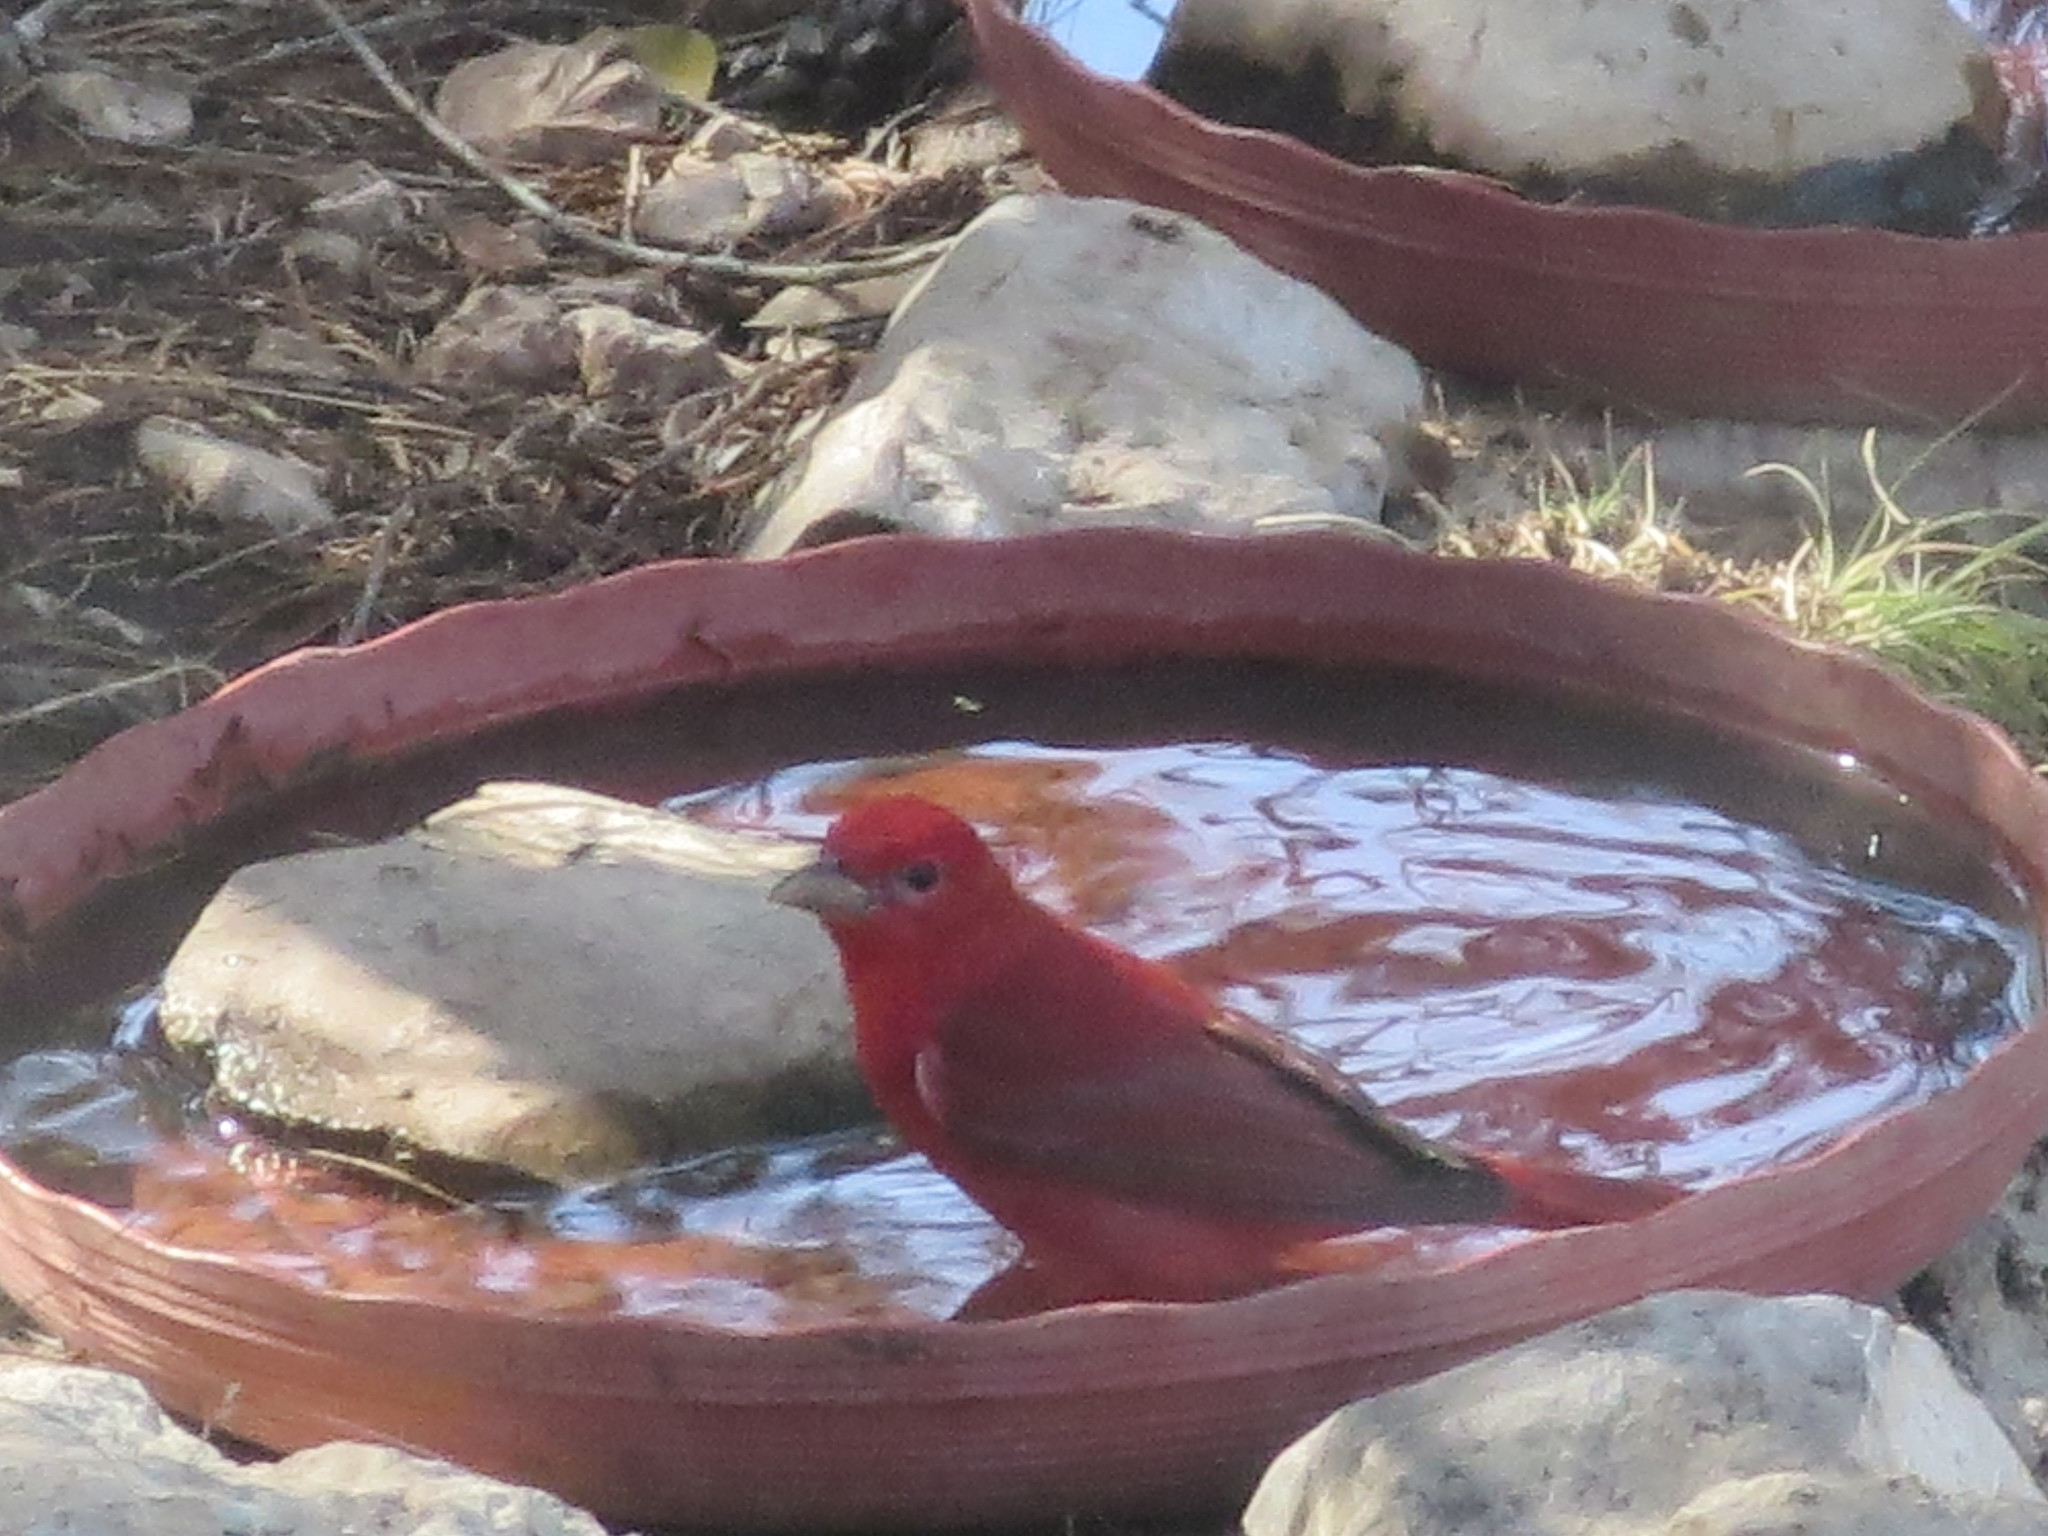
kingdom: Animalia
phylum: Chordata
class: Aves
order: Passeriformes
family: Cardinalidae
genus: Piranga
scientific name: Piranga rubra
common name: Summer tanager
